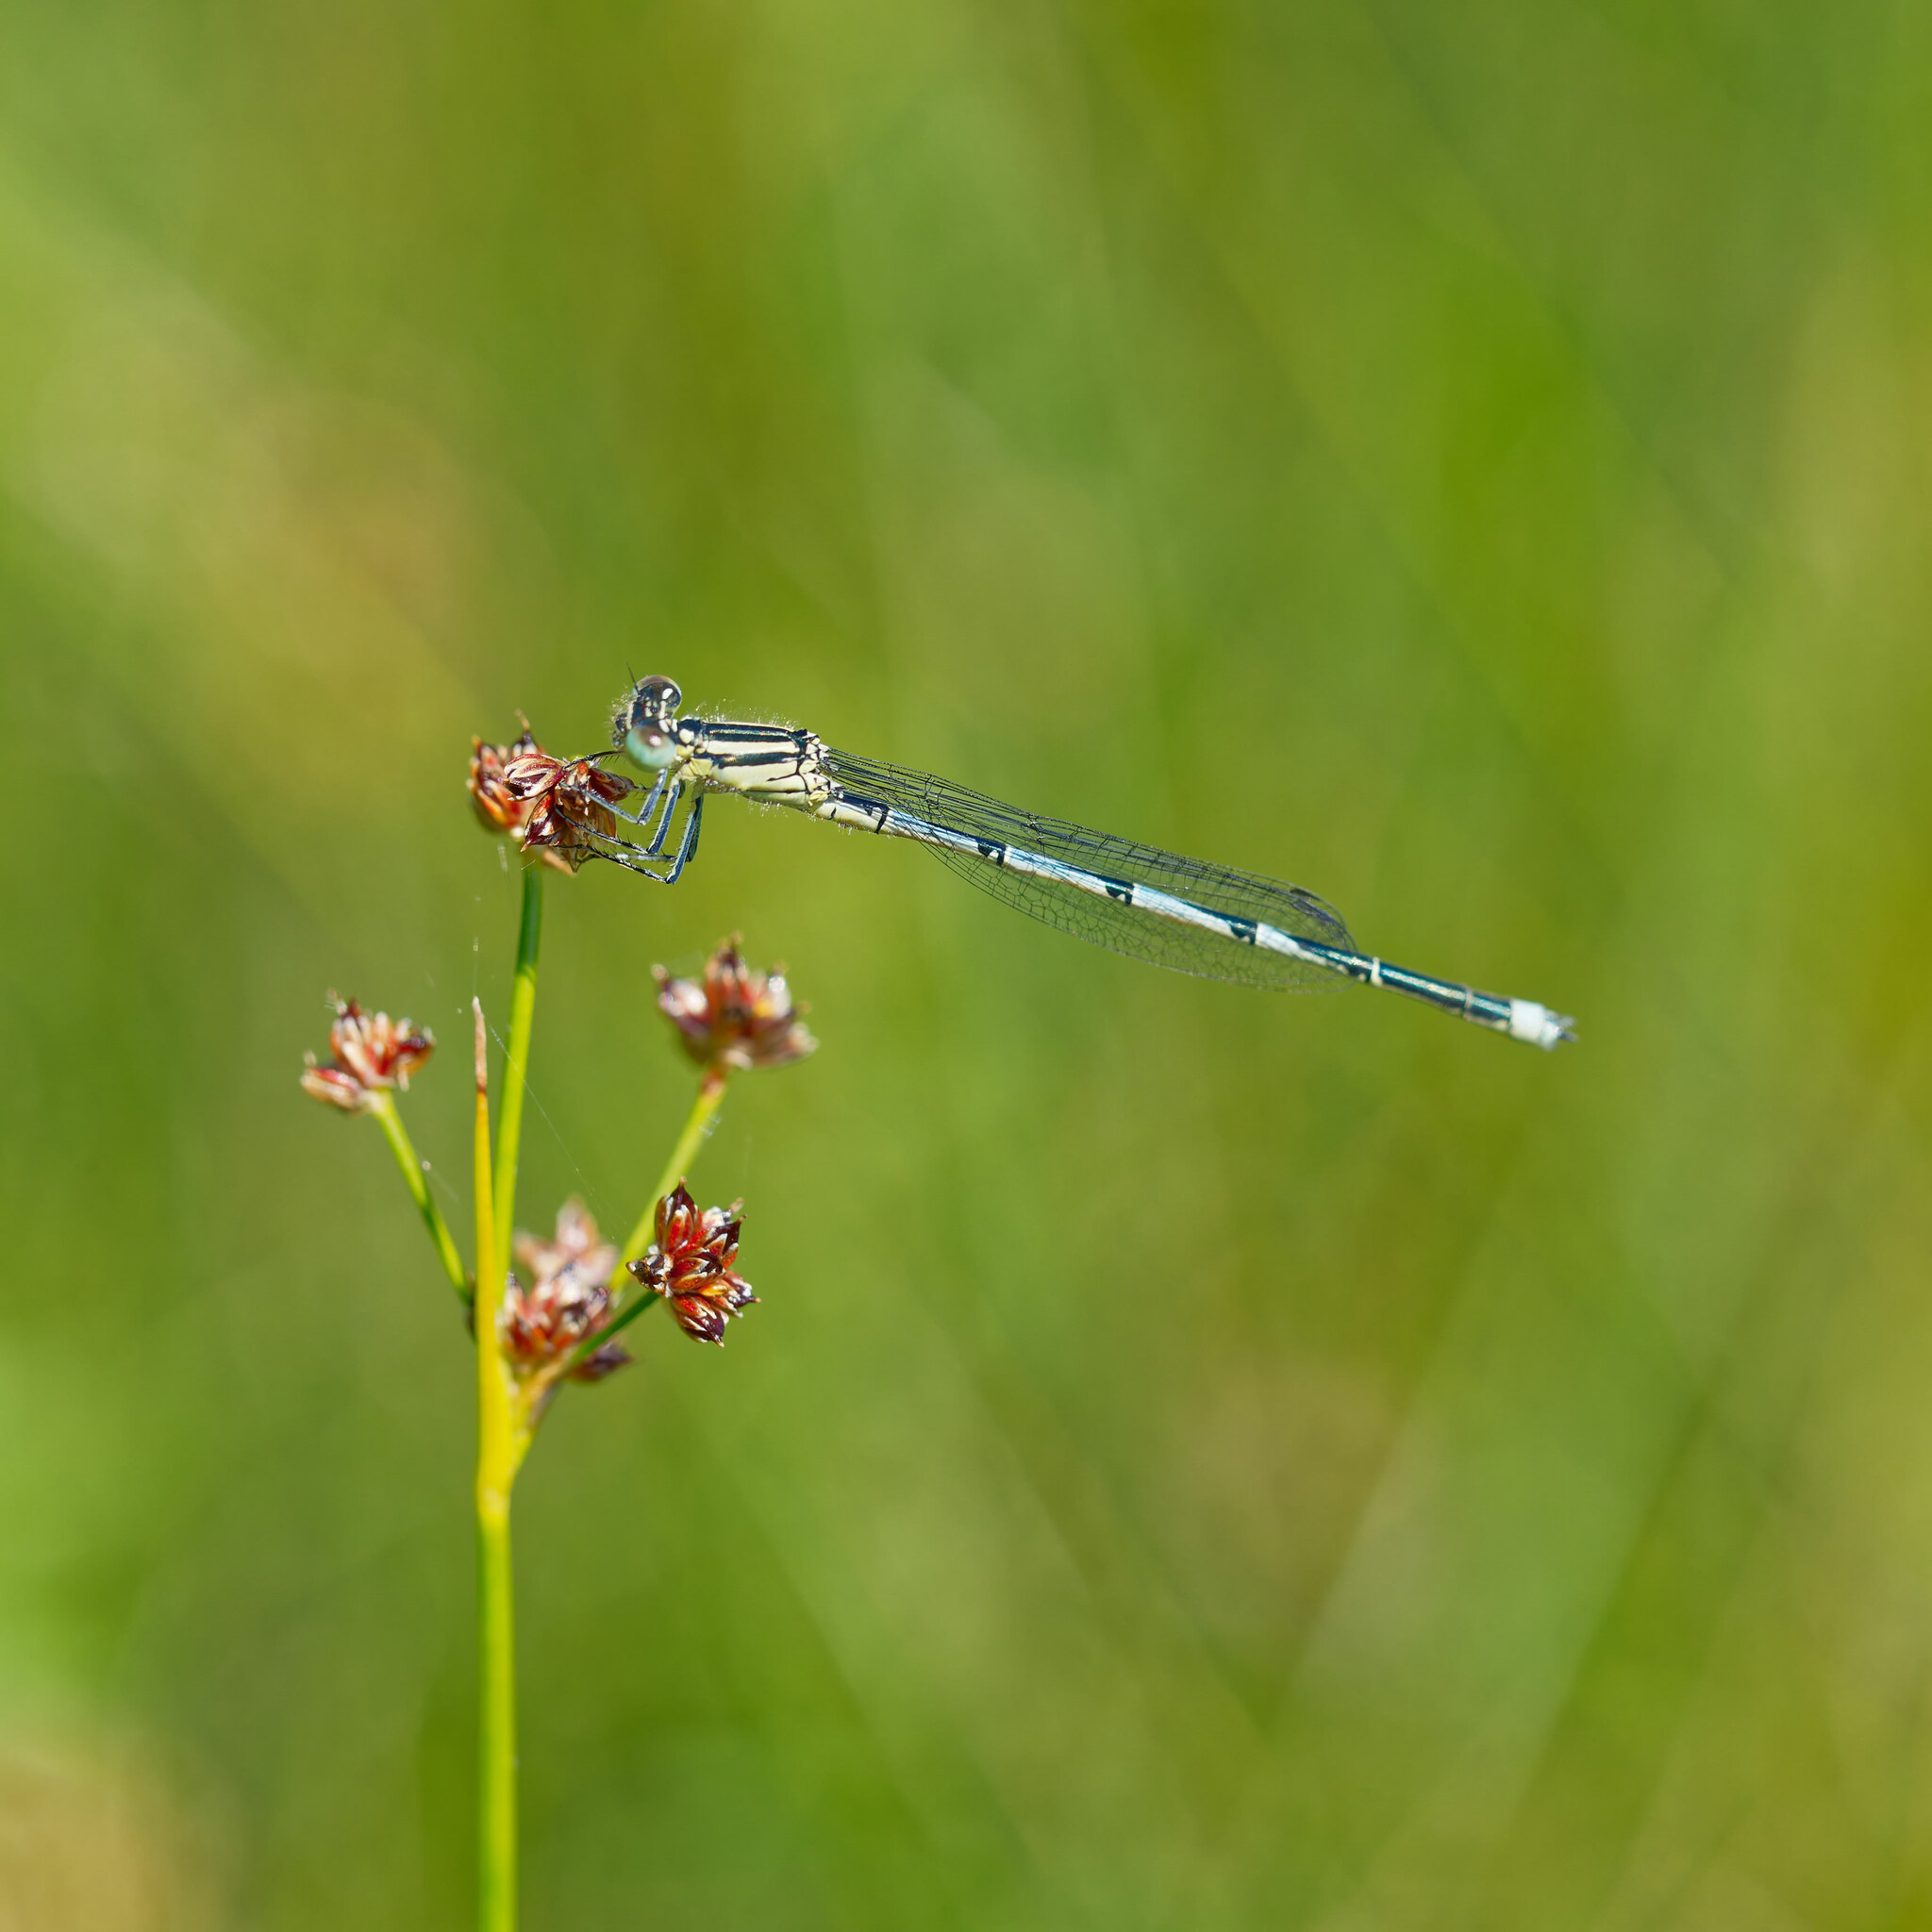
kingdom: Animalia
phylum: Arthropoda
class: Insecta
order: Odonata
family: Coenagrionidae
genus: Erythromma
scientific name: Erythromma lindenii
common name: Blue-eye
